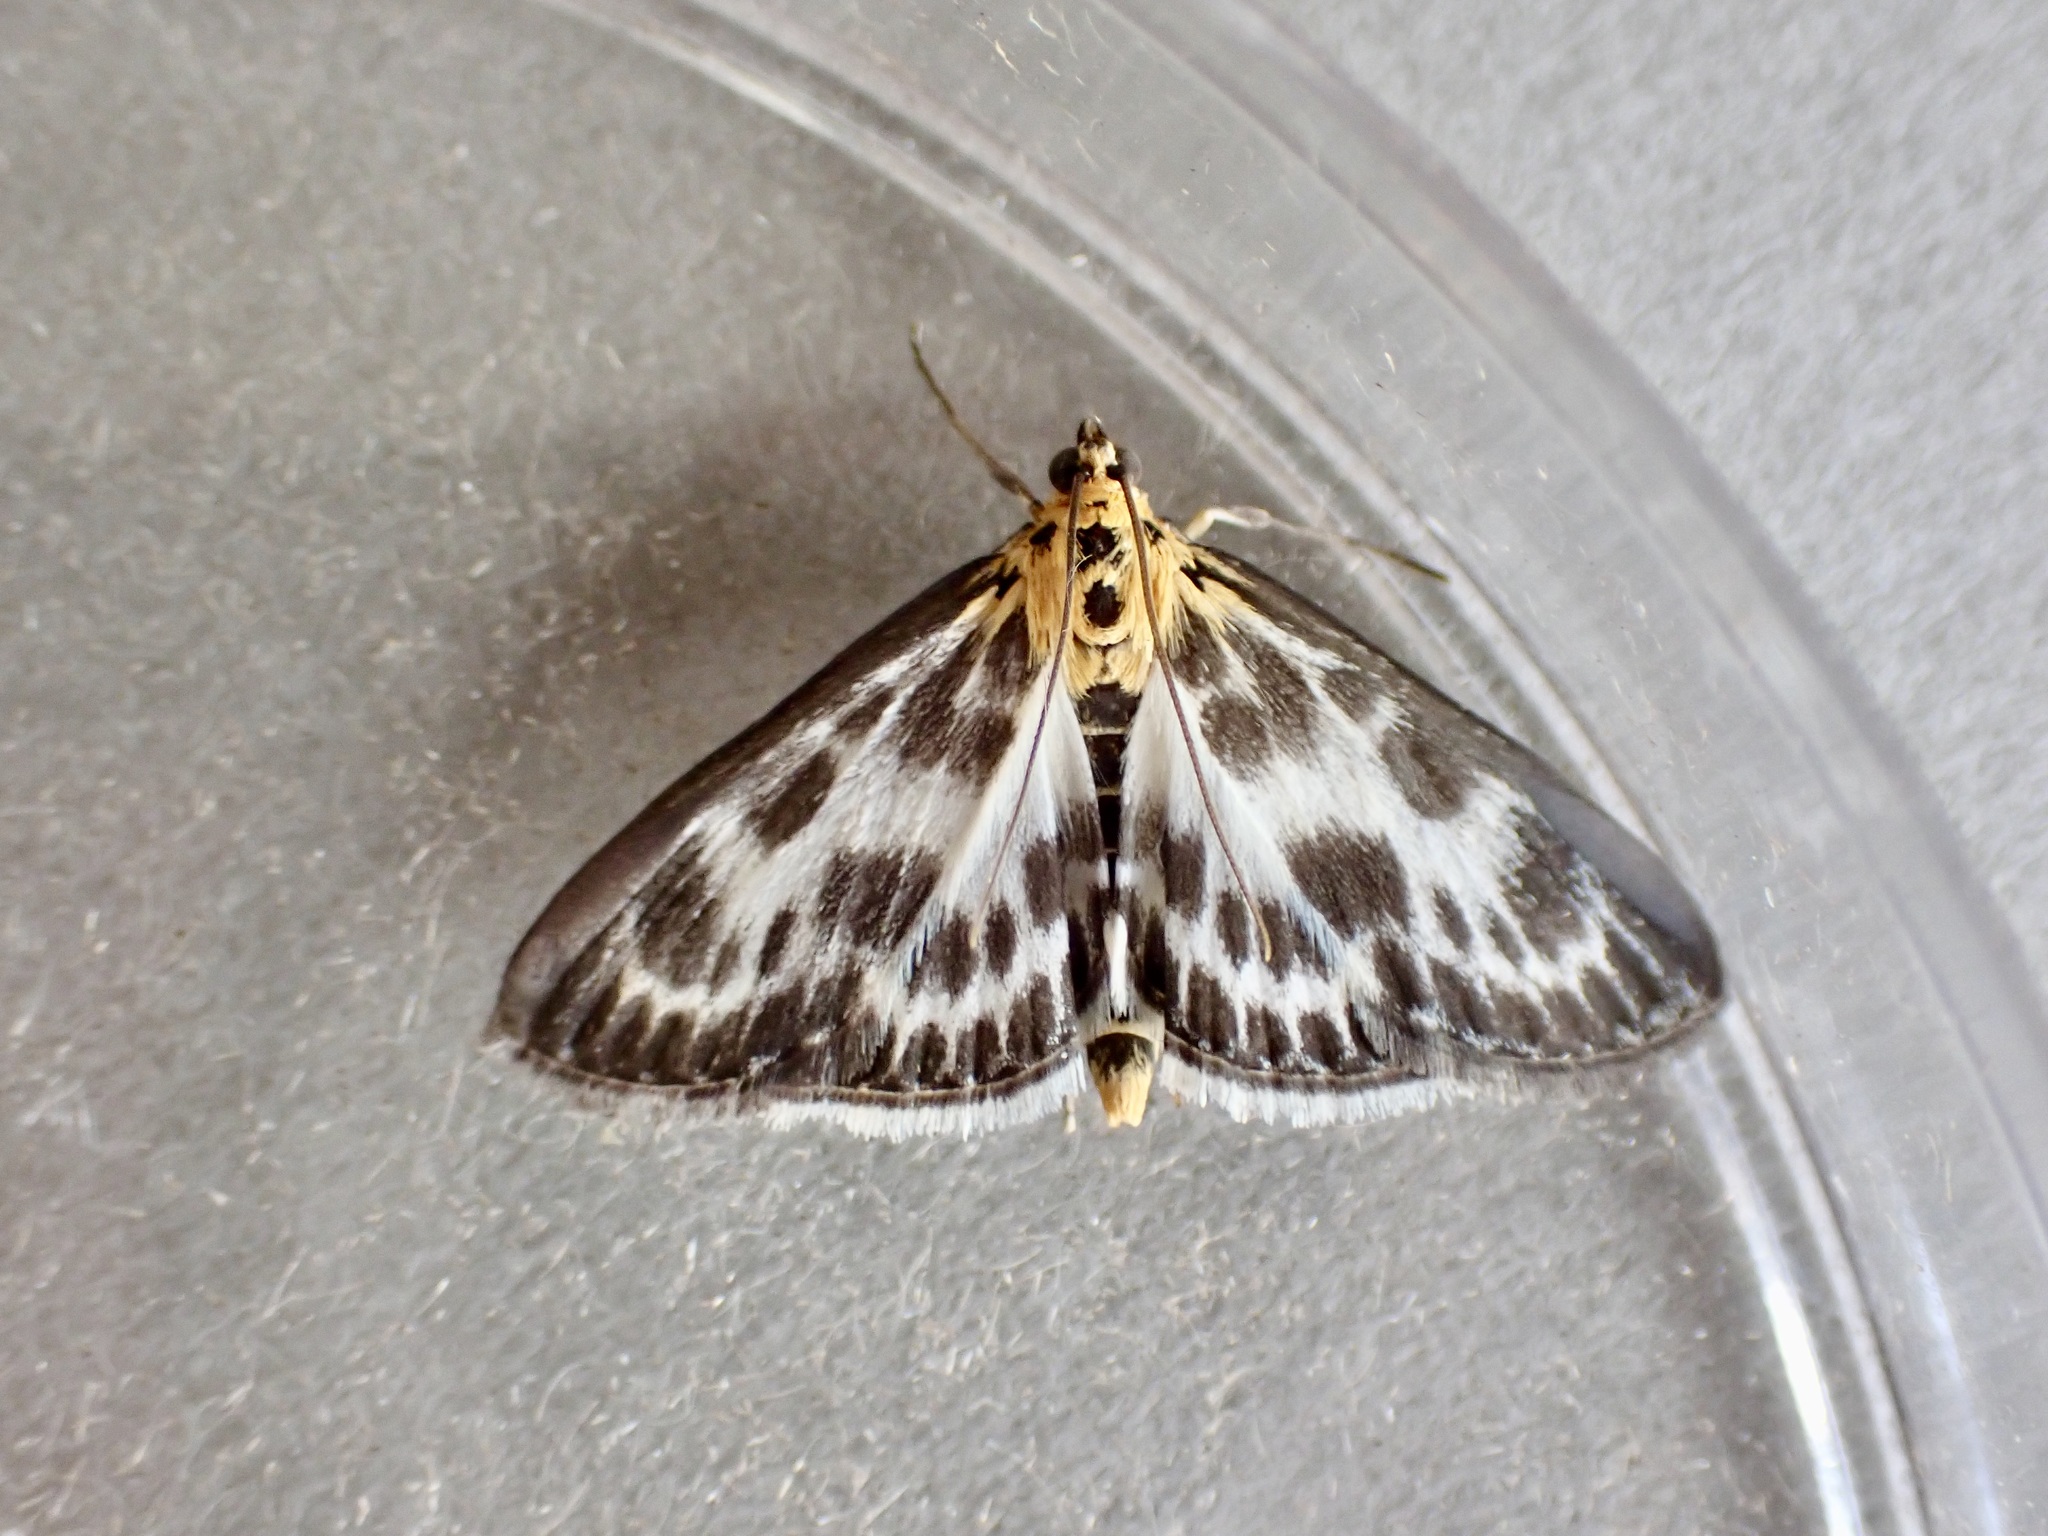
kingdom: Animalia
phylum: Arthropoda
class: Insecta
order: Lepidoptera
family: Crambidae
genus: Anania
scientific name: Anania hortulata
